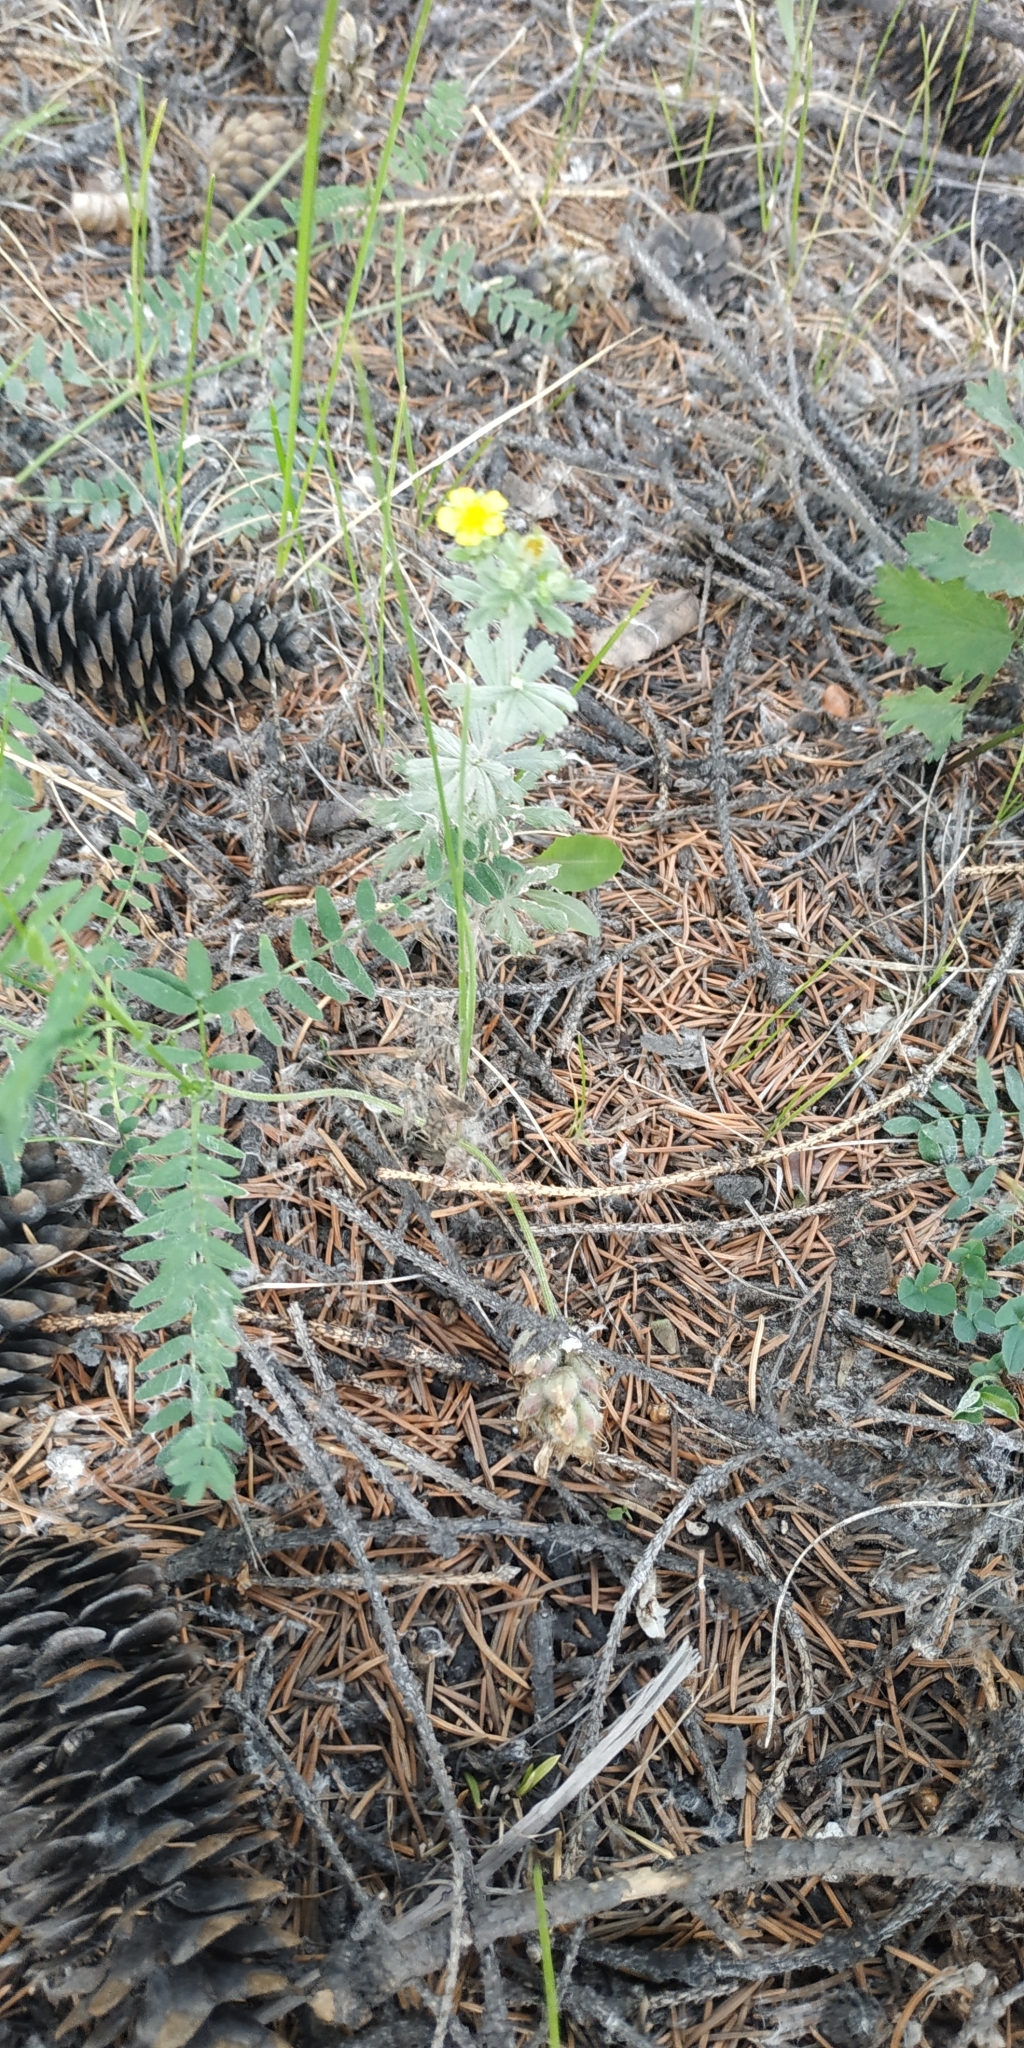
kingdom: Plantae
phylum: Tracheophyta
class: Magnoliopsida
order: Rosales
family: Rosaceae
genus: Potentilla
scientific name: Potentilla argentea
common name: Hoary cinquefoil
